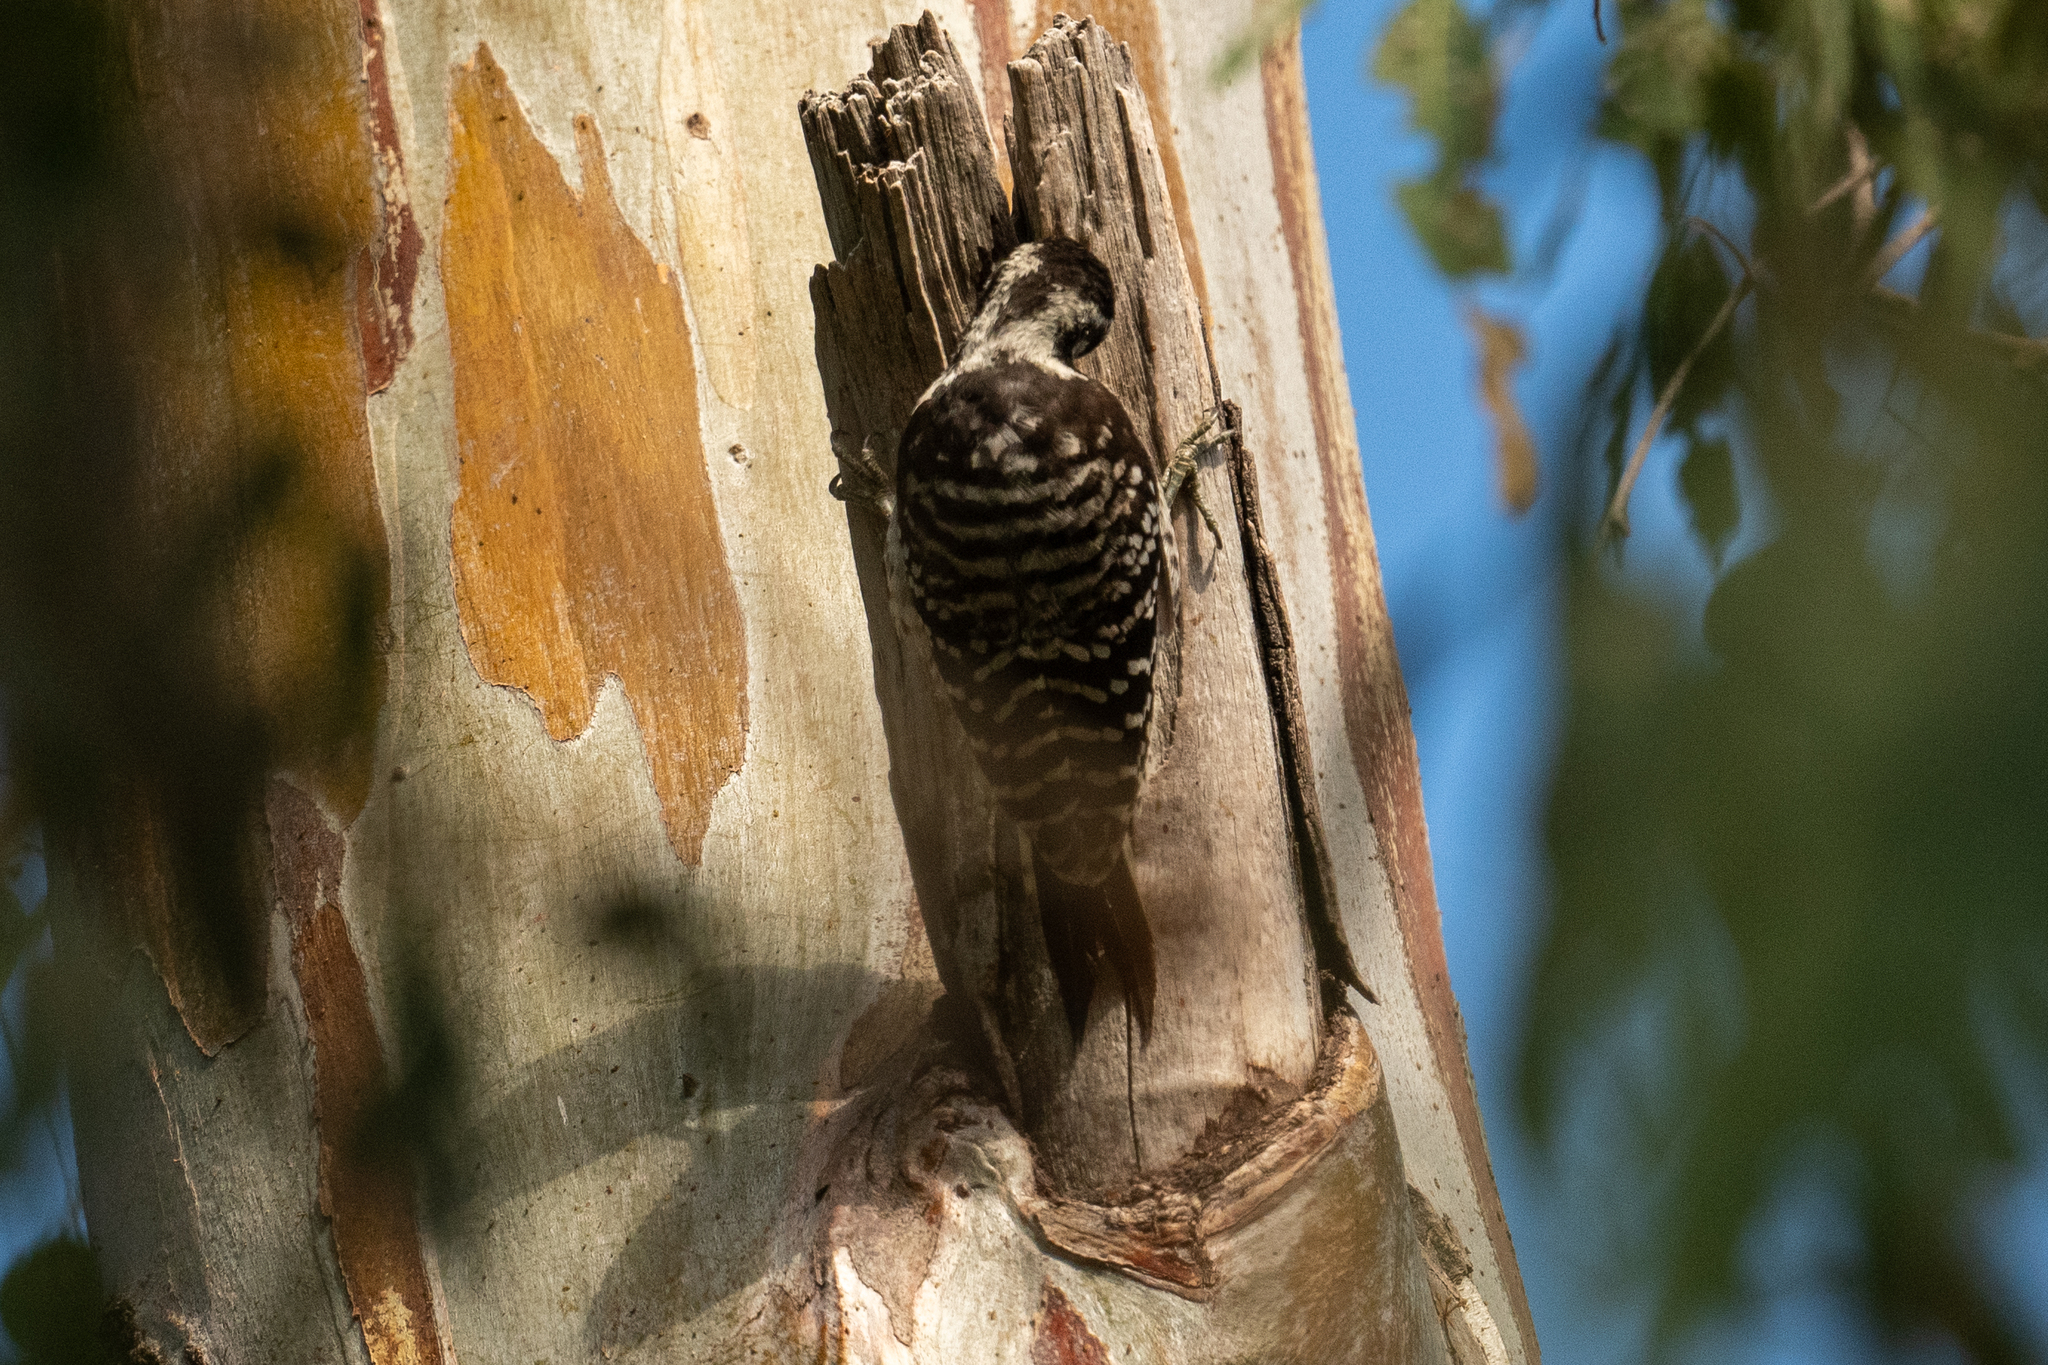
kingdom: Animalia
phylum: Chordata
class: Aves
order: Piciformes
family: Picidae
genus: Dryobates
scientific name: Dryobates nuttallii
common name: Nuttall's woodpecker
